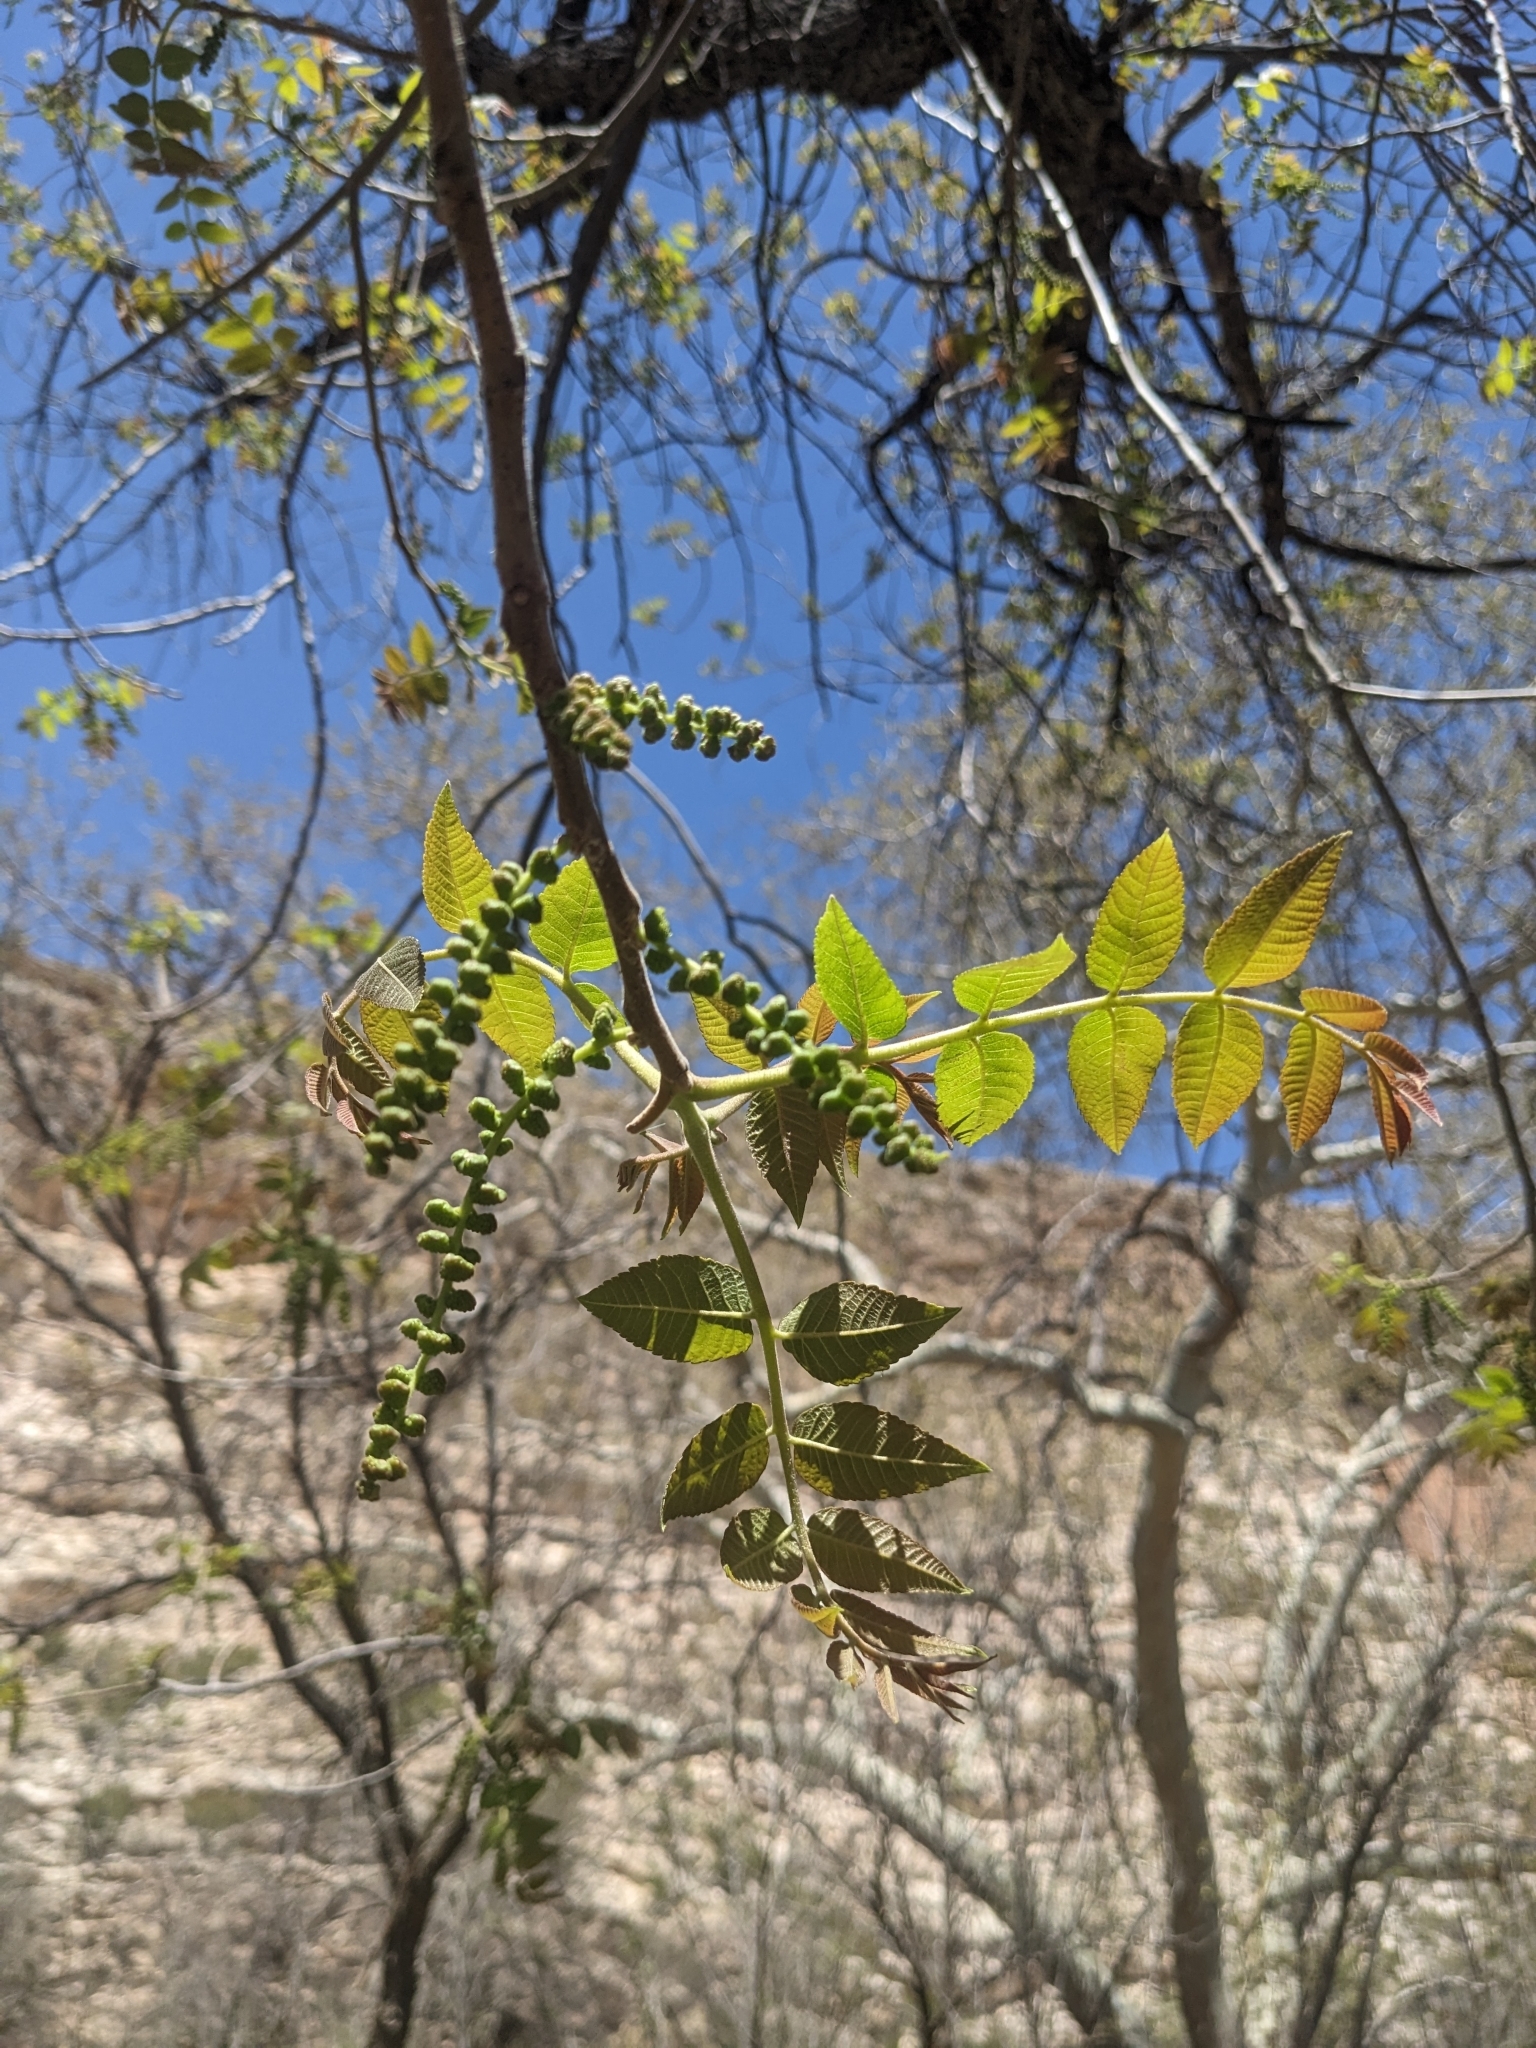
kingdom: Plantae
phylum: Tracheophyta
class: Magnoliopsida
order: Fagales
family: Juglandaceae
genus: Juglans
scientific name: Juglans major
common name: Arizona walnut
